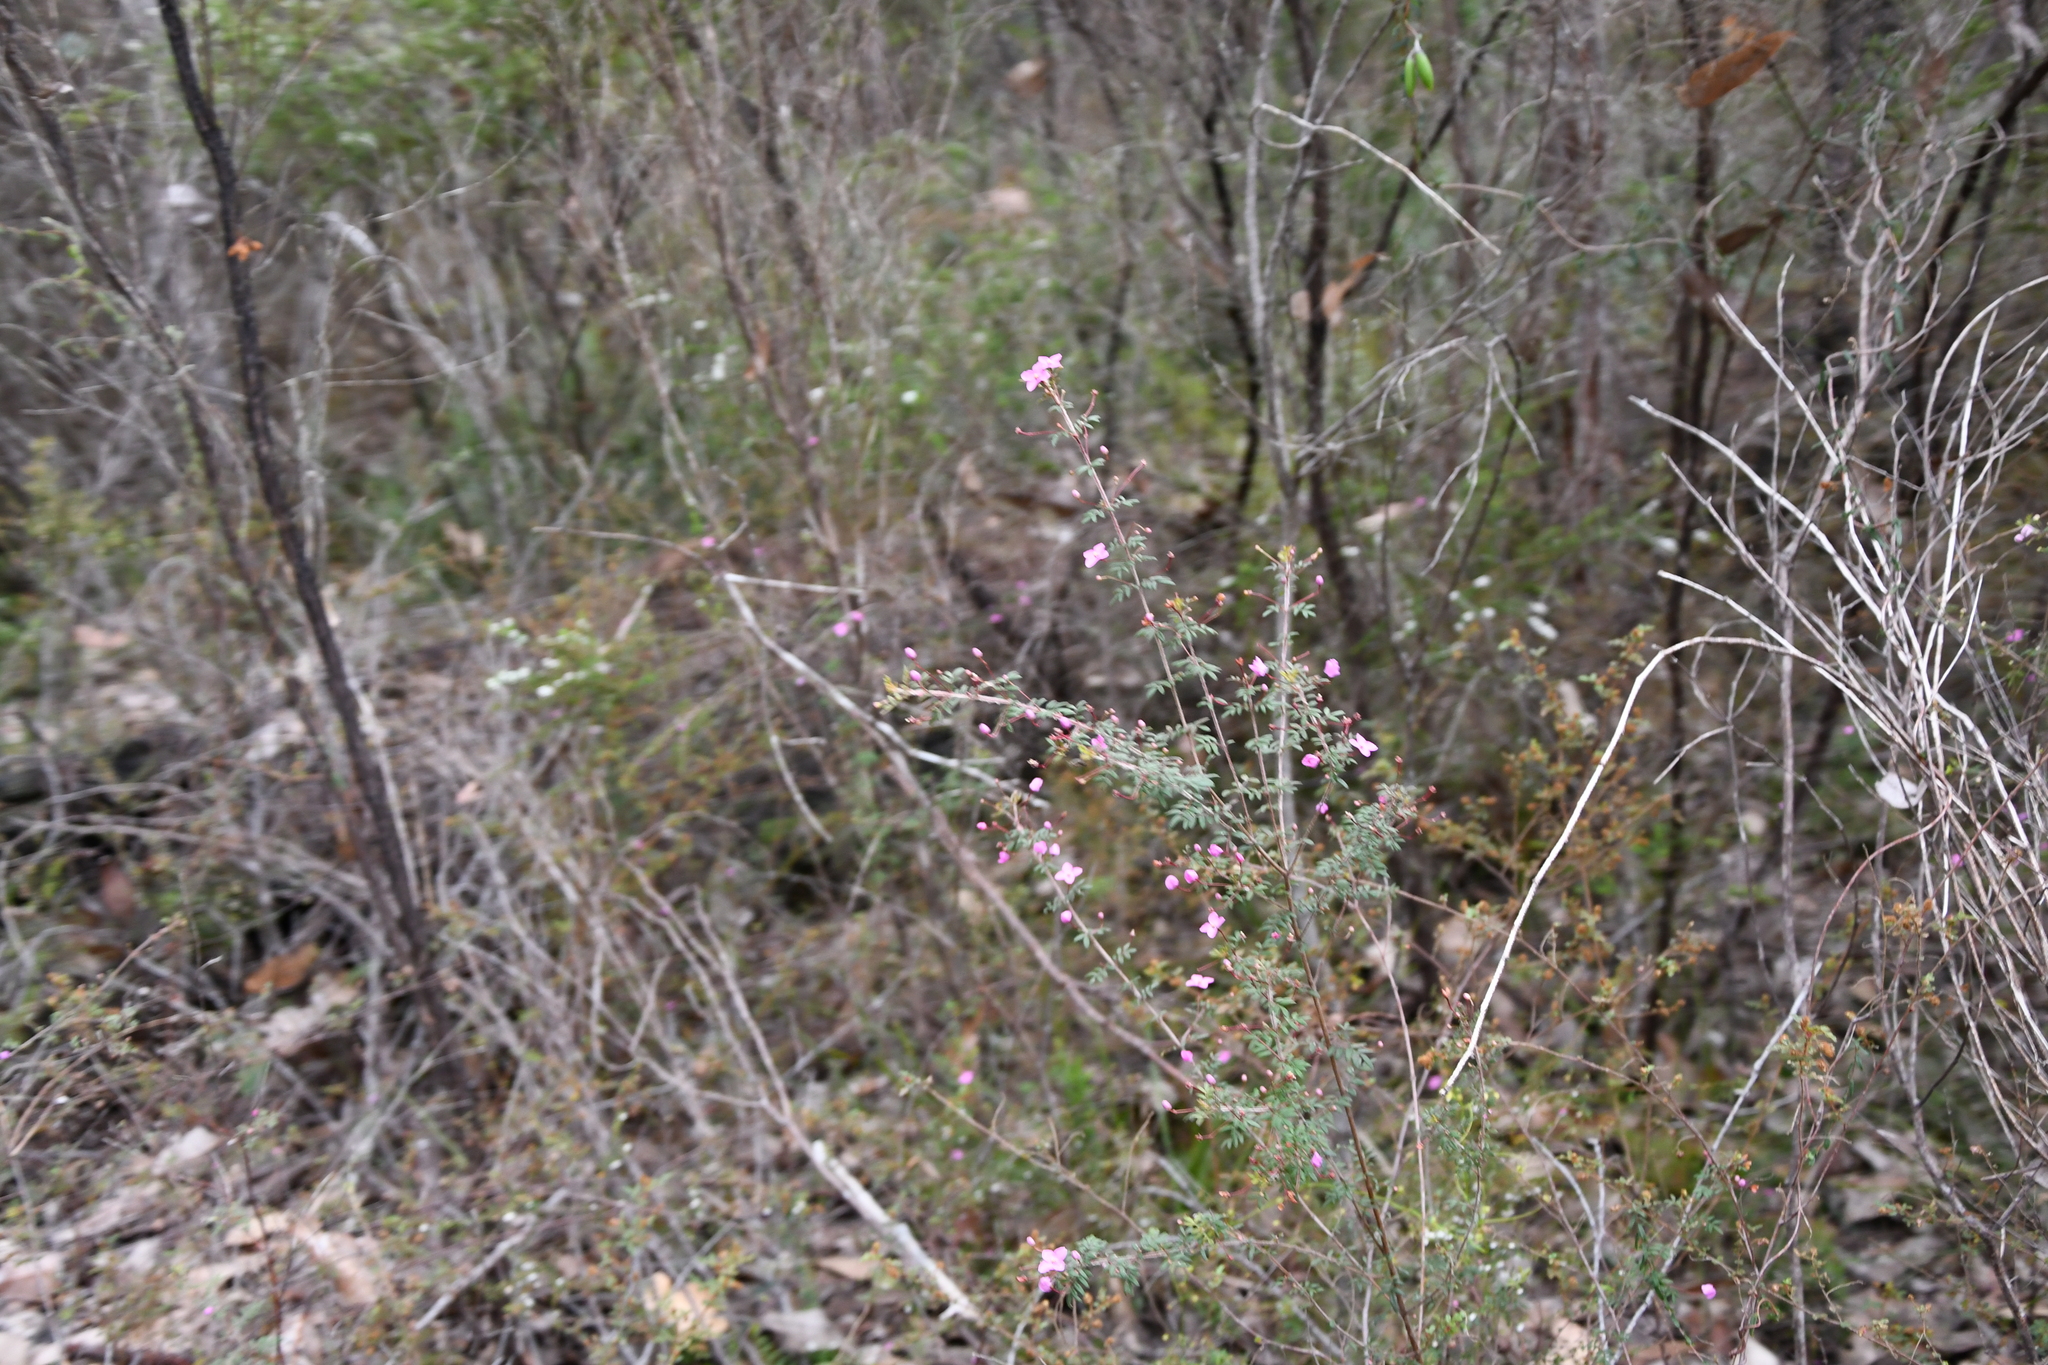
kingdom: Plantae
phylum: Tracheophyta
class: Magnoliopsida
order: Sapindales
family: Rutaceae
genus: Boronia
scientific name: Boronia gracilipes
